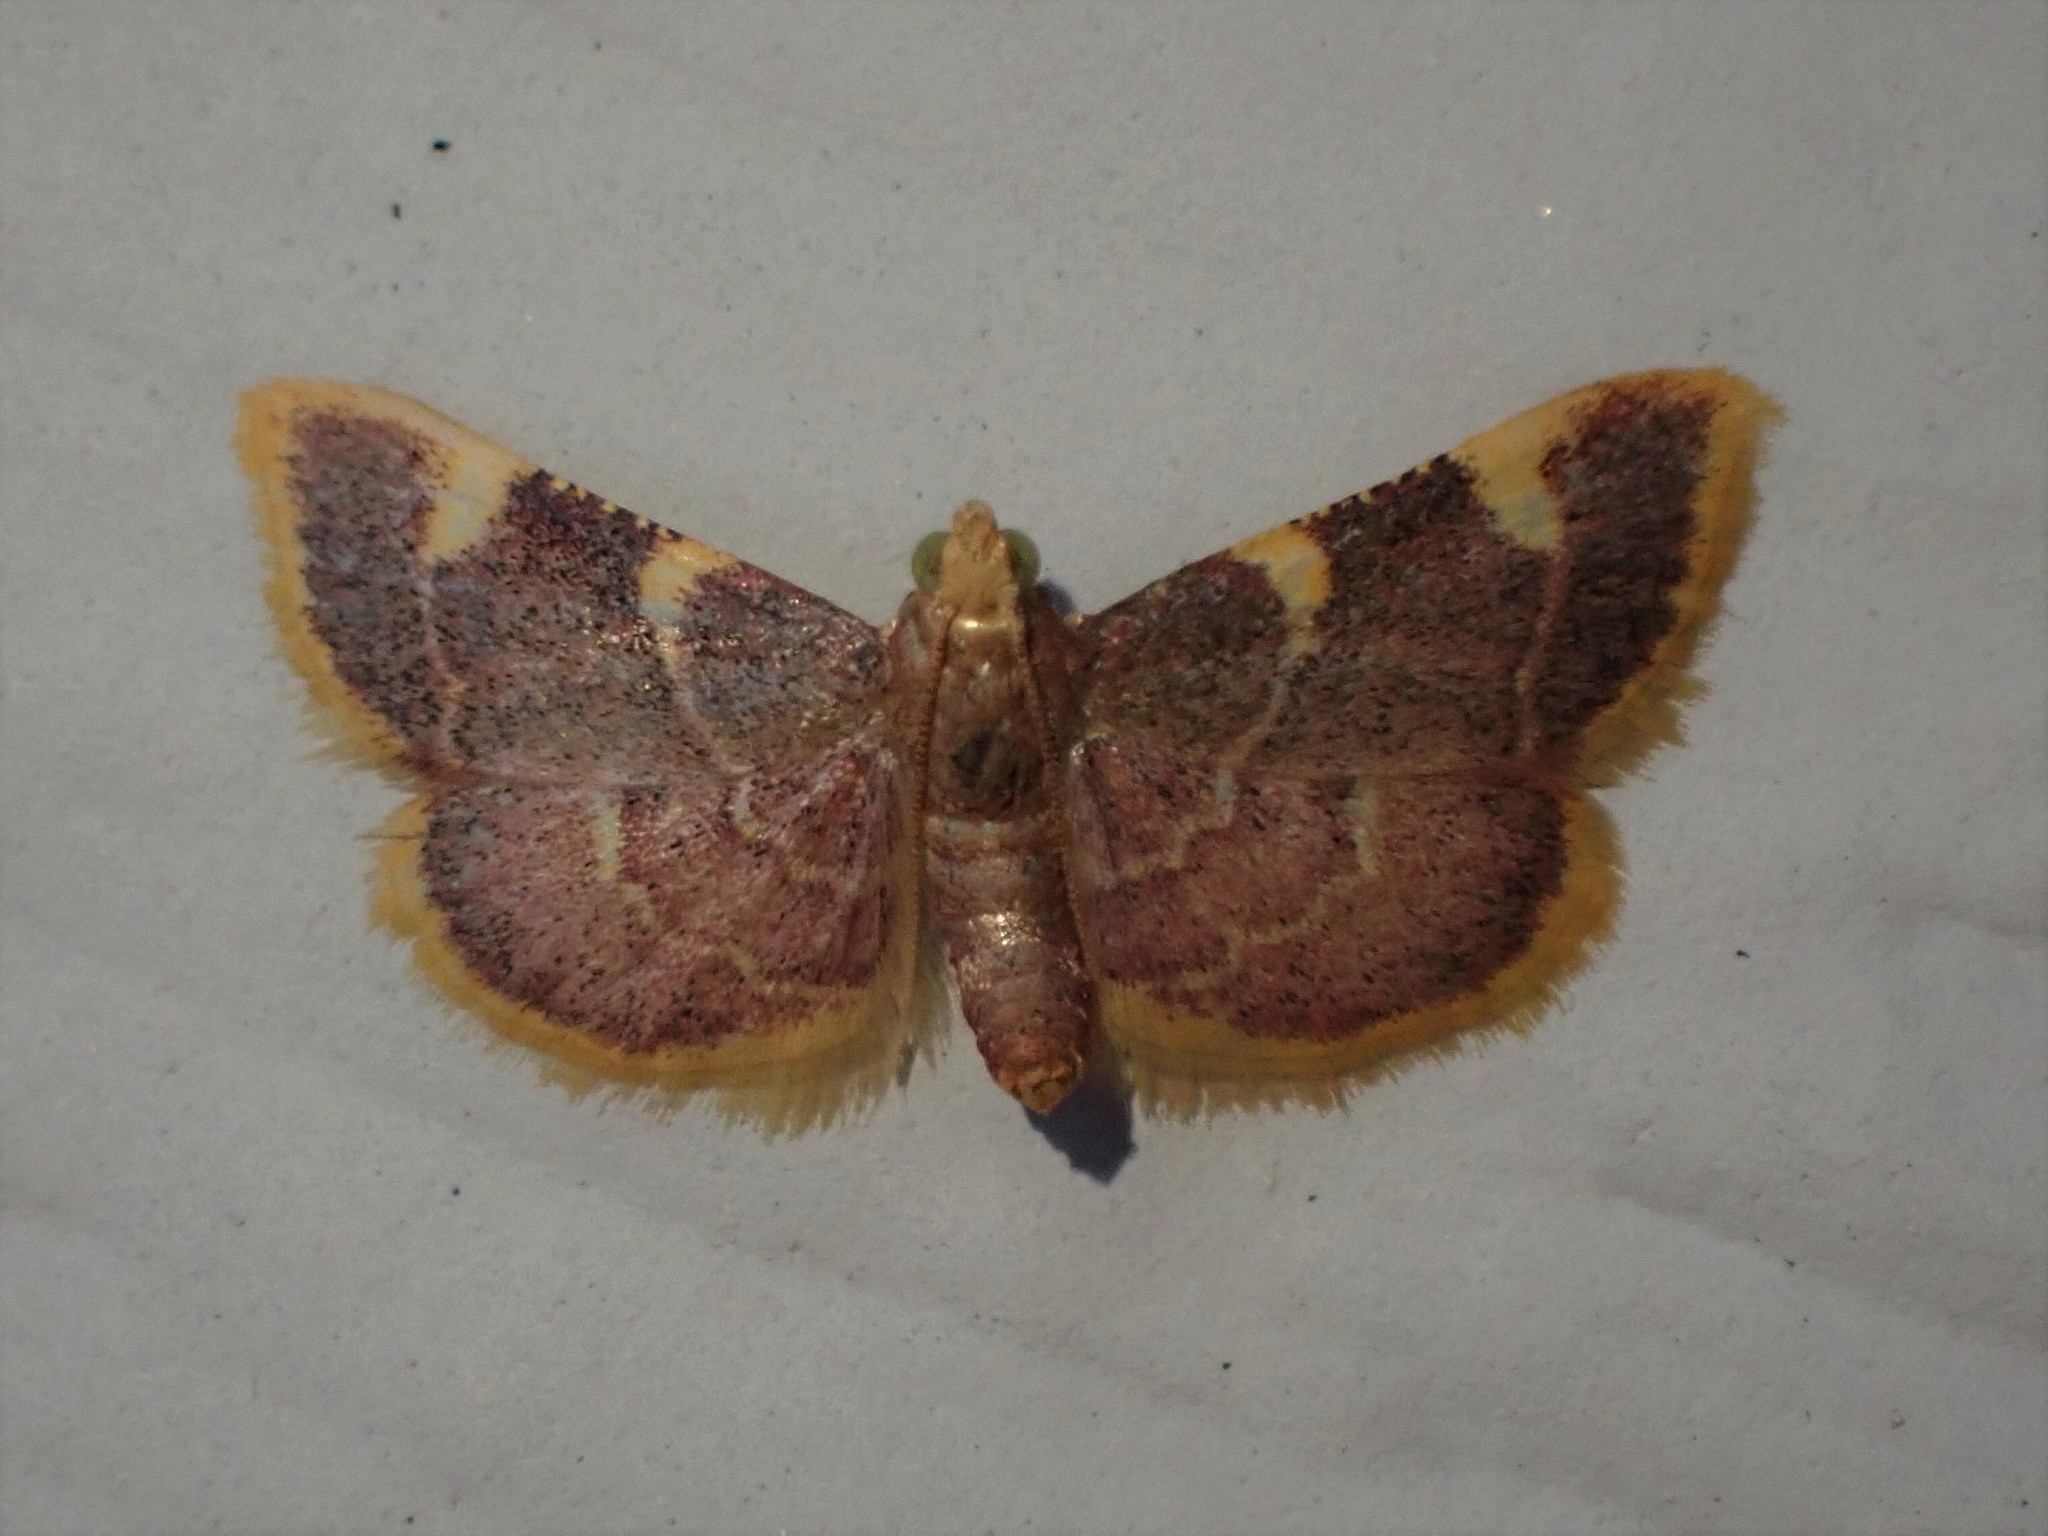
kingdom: Animalia
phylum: Arthropoda
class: Insecta
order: Lepidoptera
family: Pyralidae
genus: Hypsopygia
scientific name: Hypsopygia costalis
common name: Gold triangle
